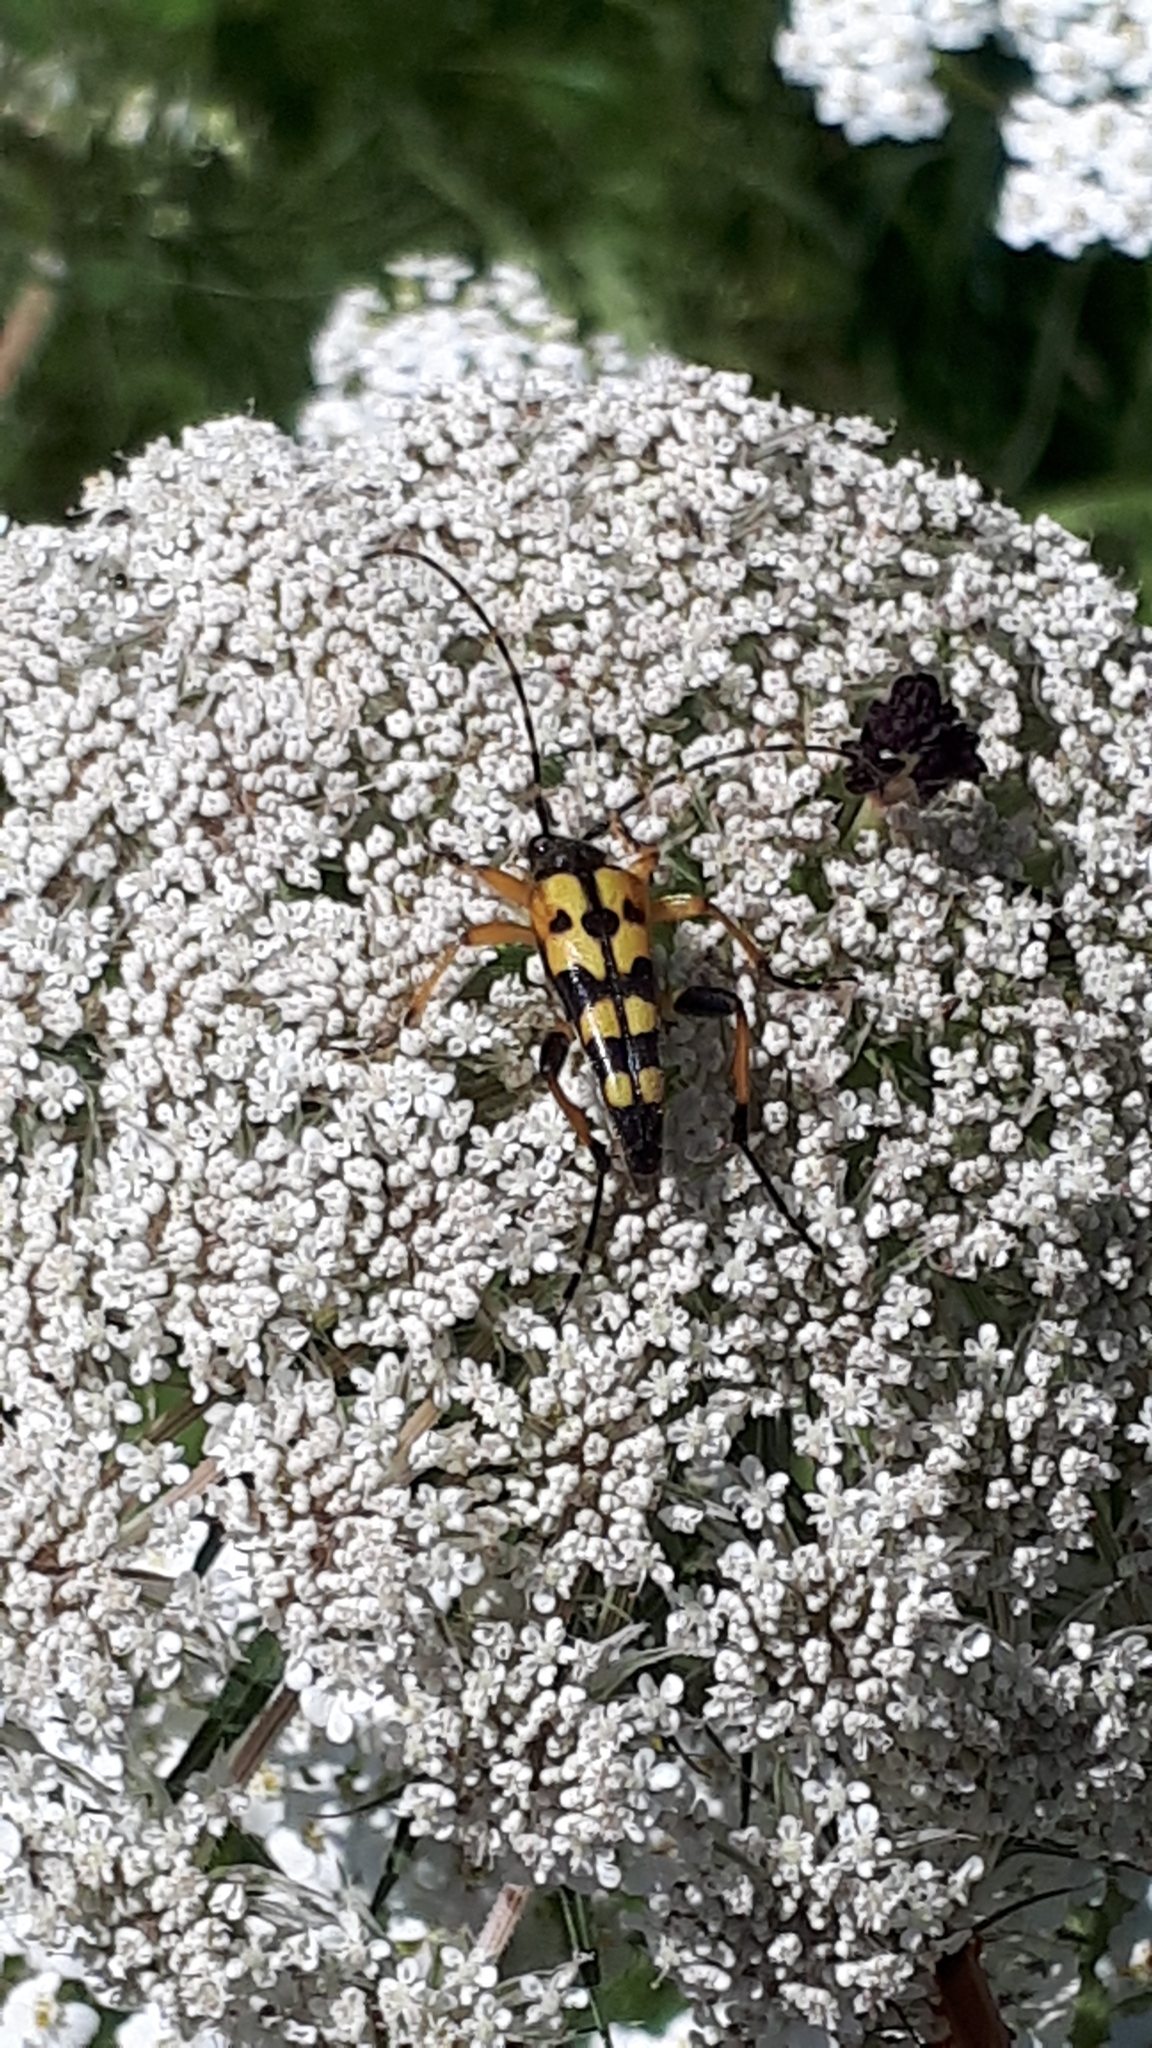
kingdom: Animalia
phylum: Arthropoda
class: Insecta
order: Coleoptera
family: Cerambycidae
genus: Rutpela
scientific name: Rutpela maculata
